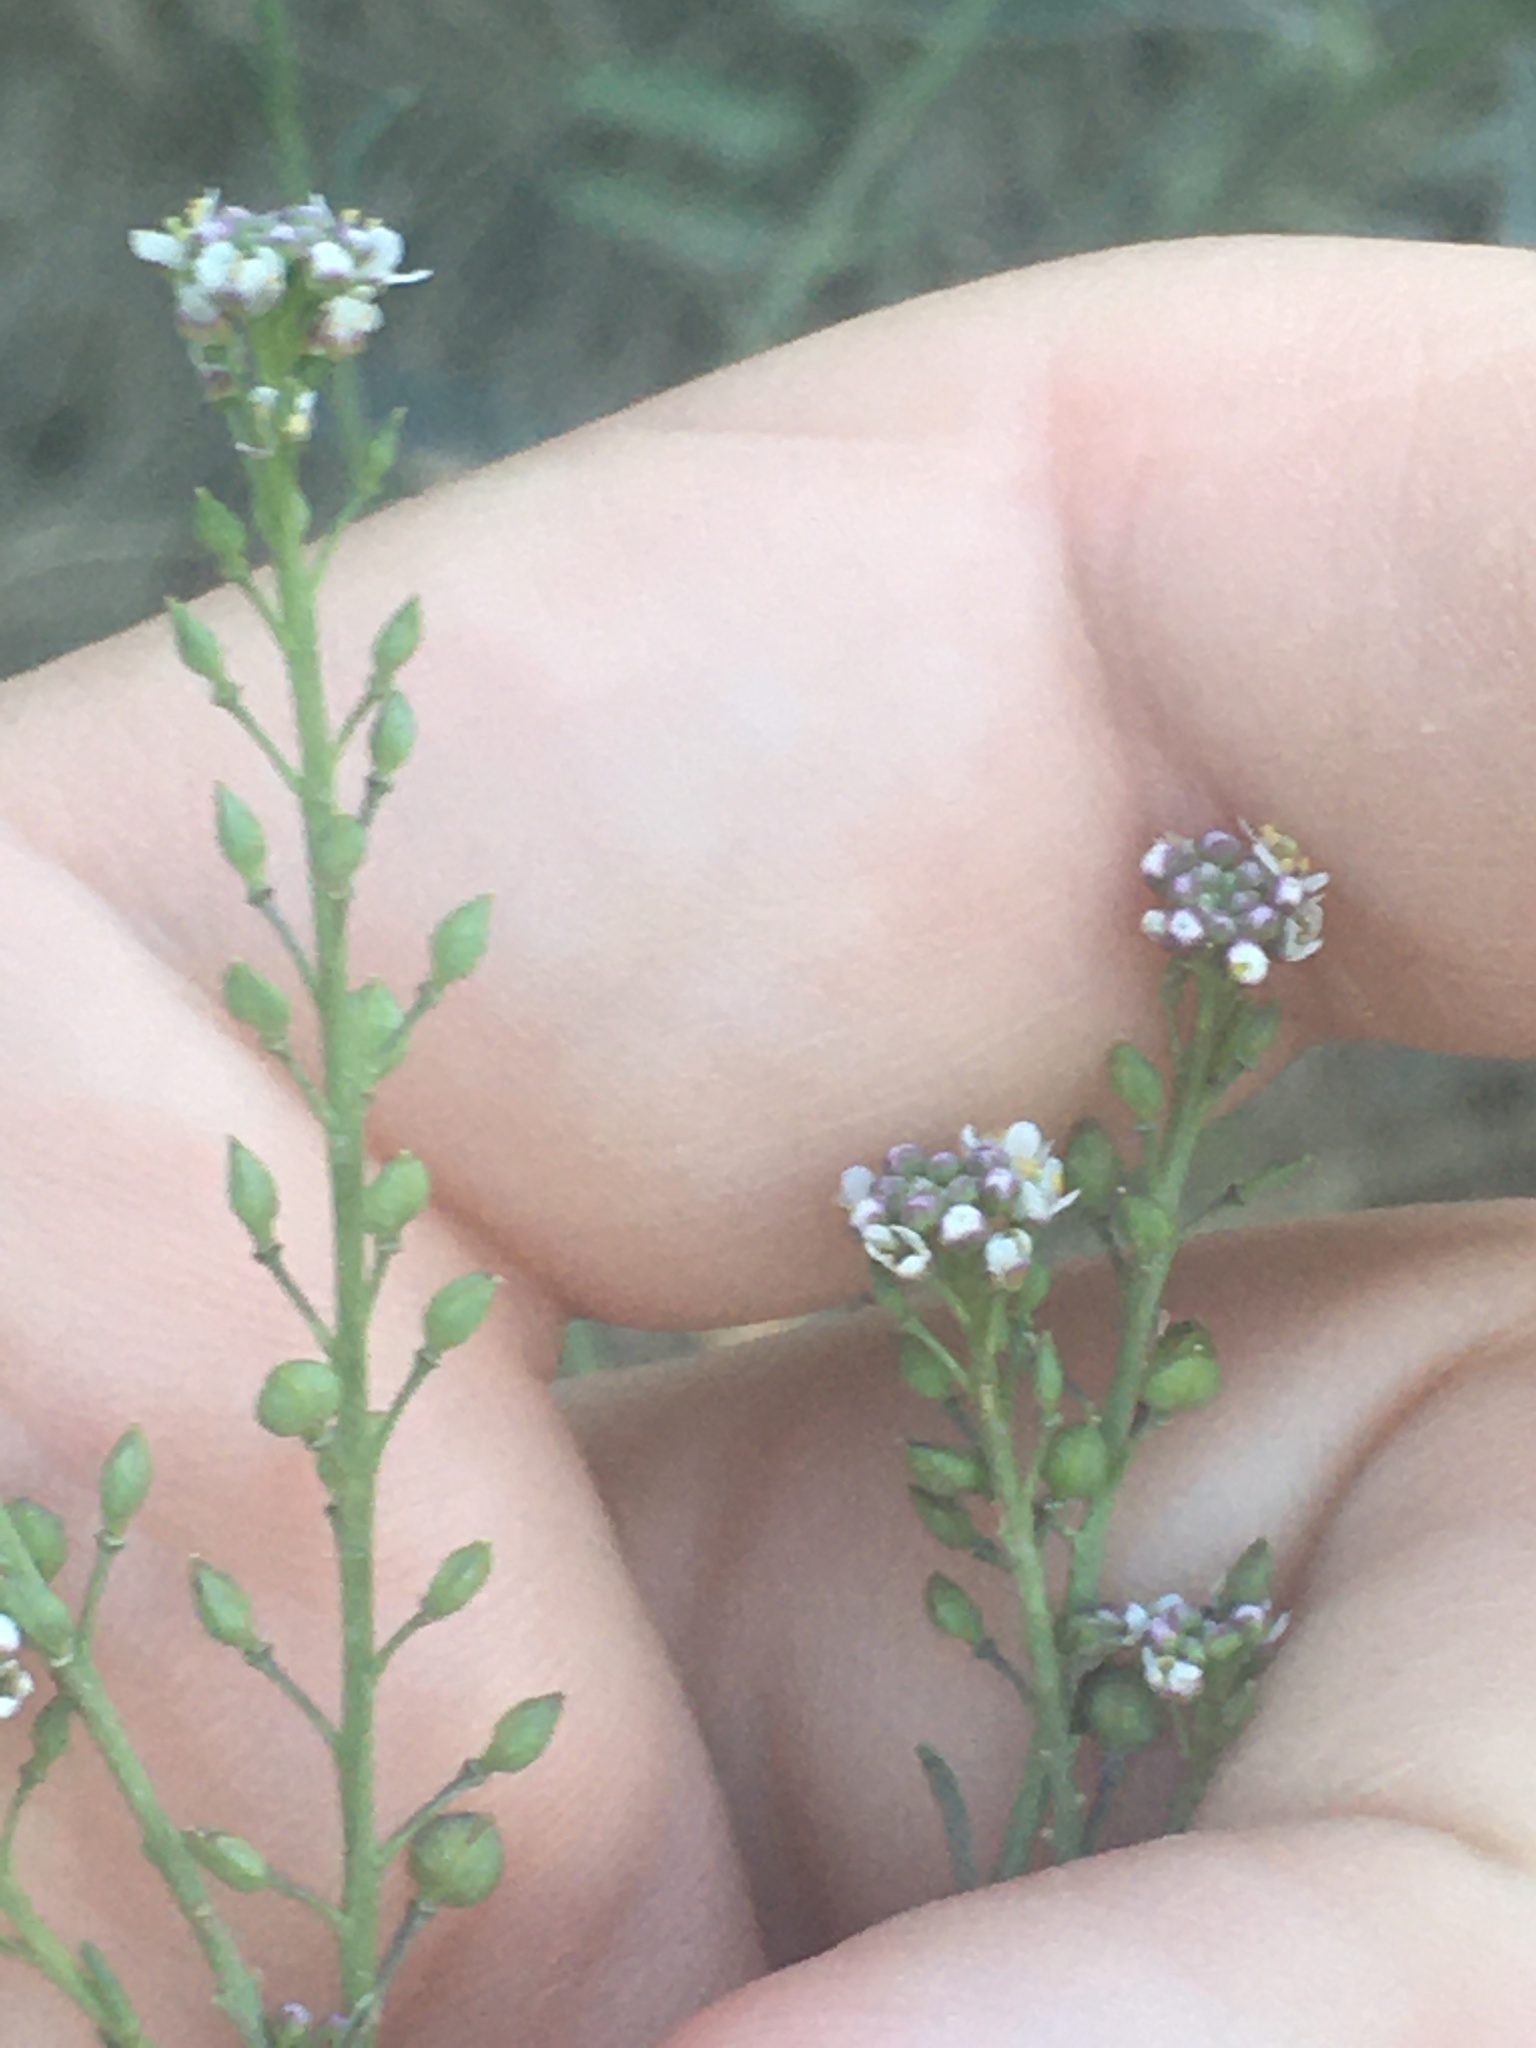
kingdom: Plantae
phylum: Tracheophyta
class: Magnoliopsida
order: Brassicales
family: Brassicaceae
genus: Lepidium
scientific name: Lepidium graminifolium
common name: Tall pepperwort
